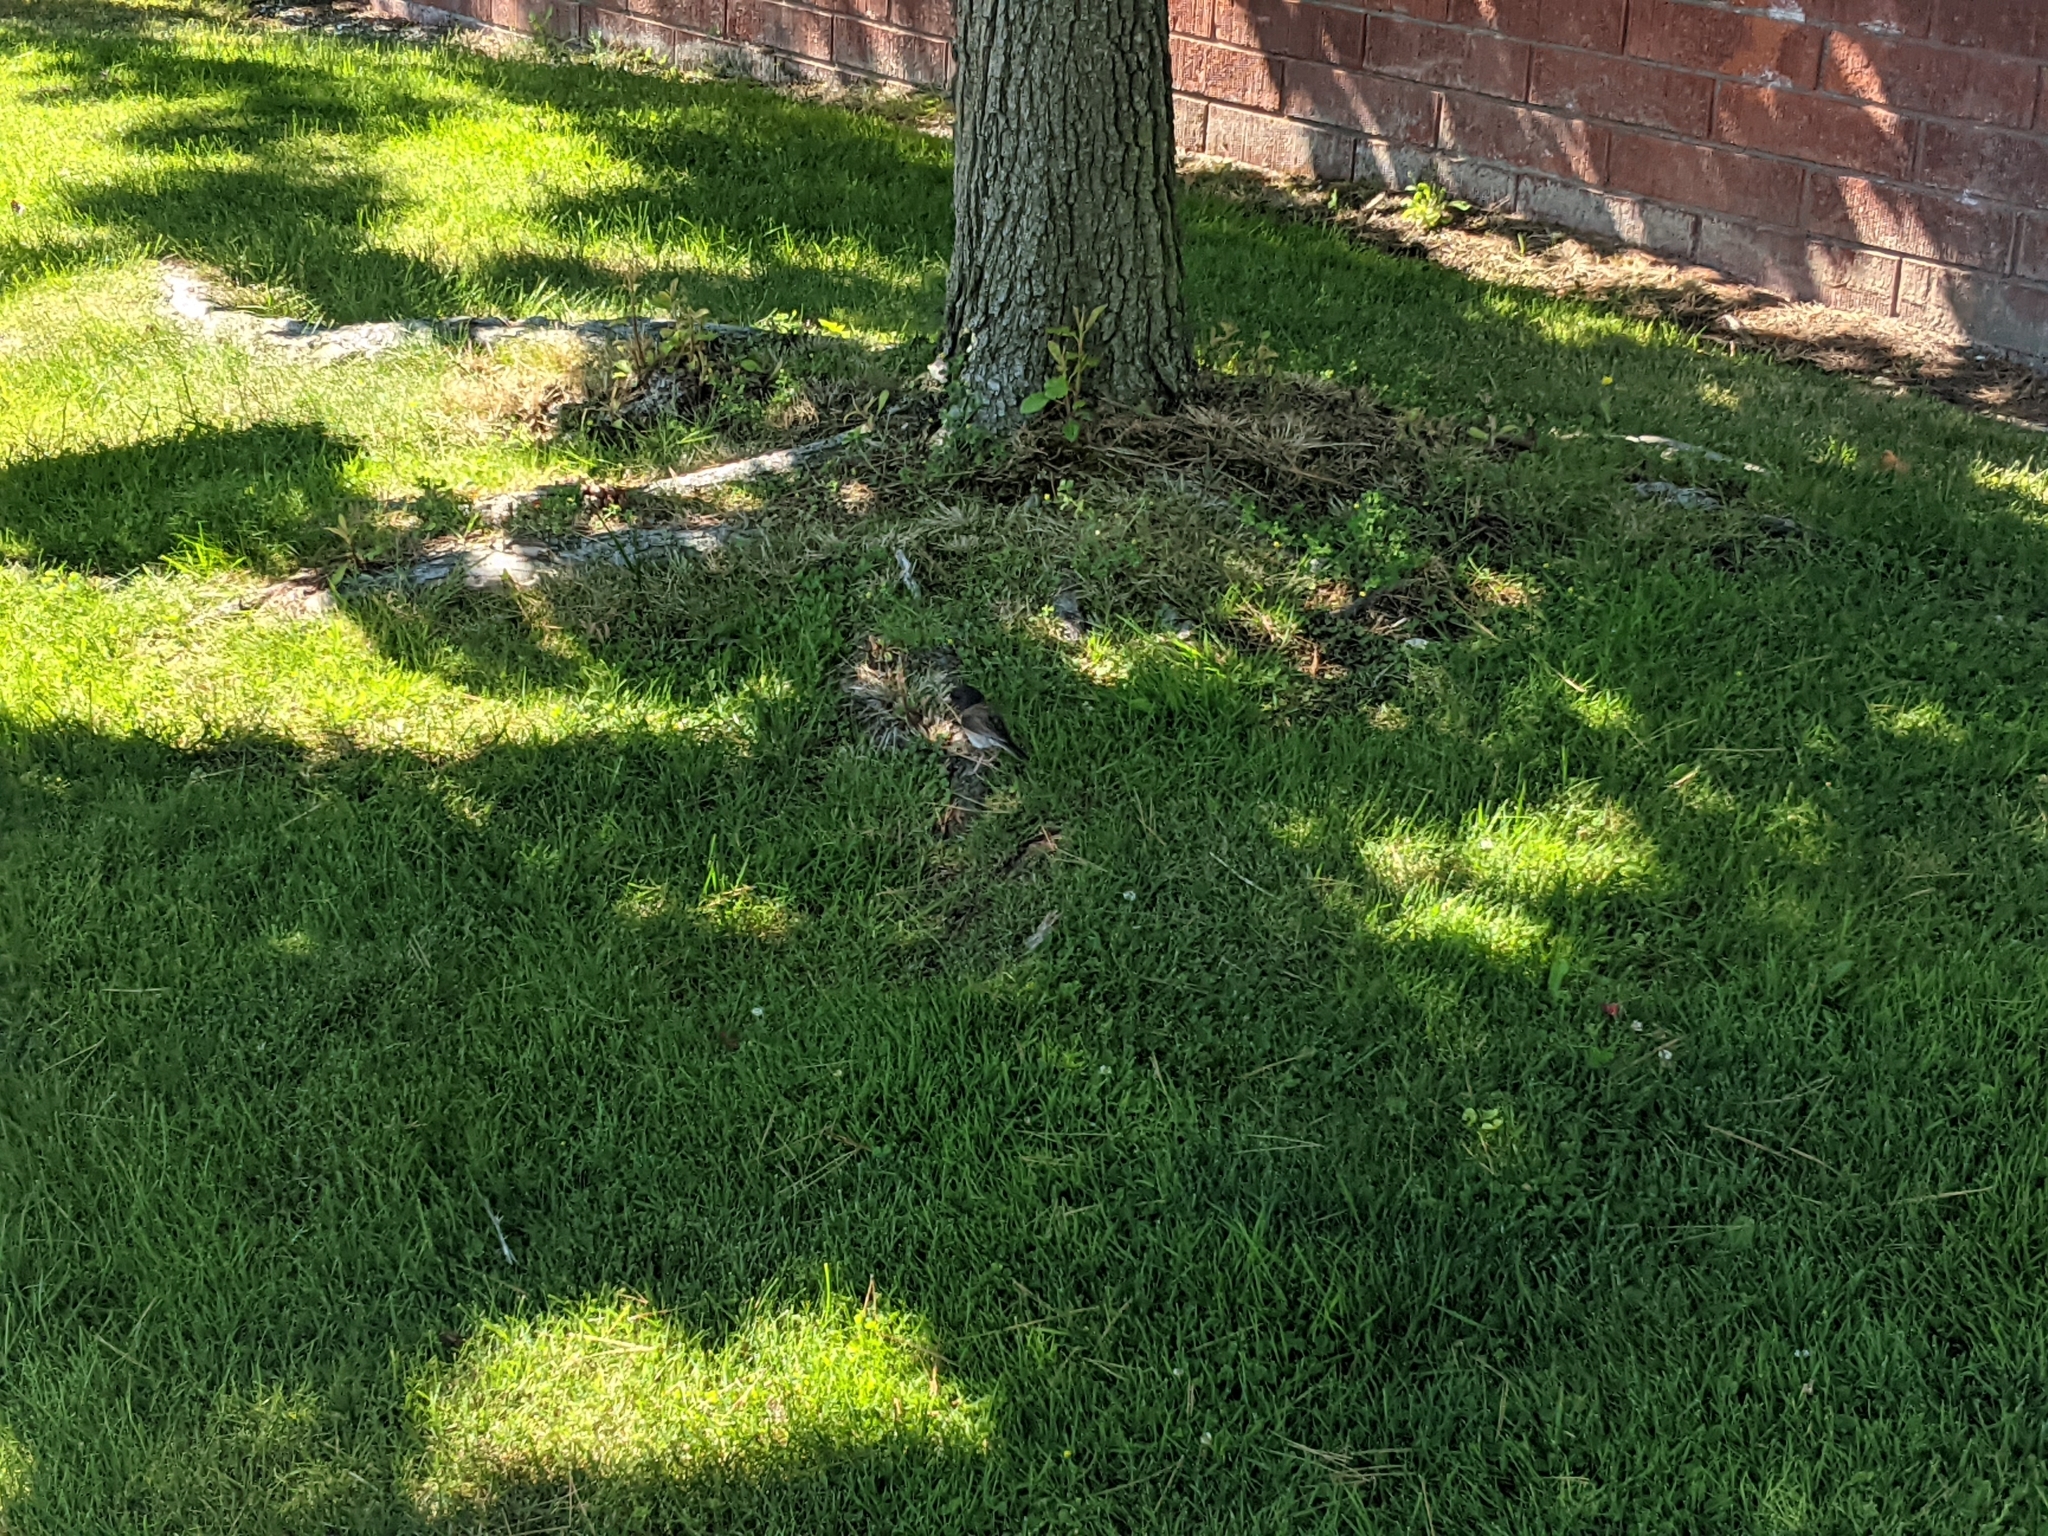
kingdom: Animalia
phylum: Chordata
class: Aves
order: Passeriformes
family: Passerellidae
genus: Junco
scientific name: Junco hyemalis
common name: Dark-eyed junco
